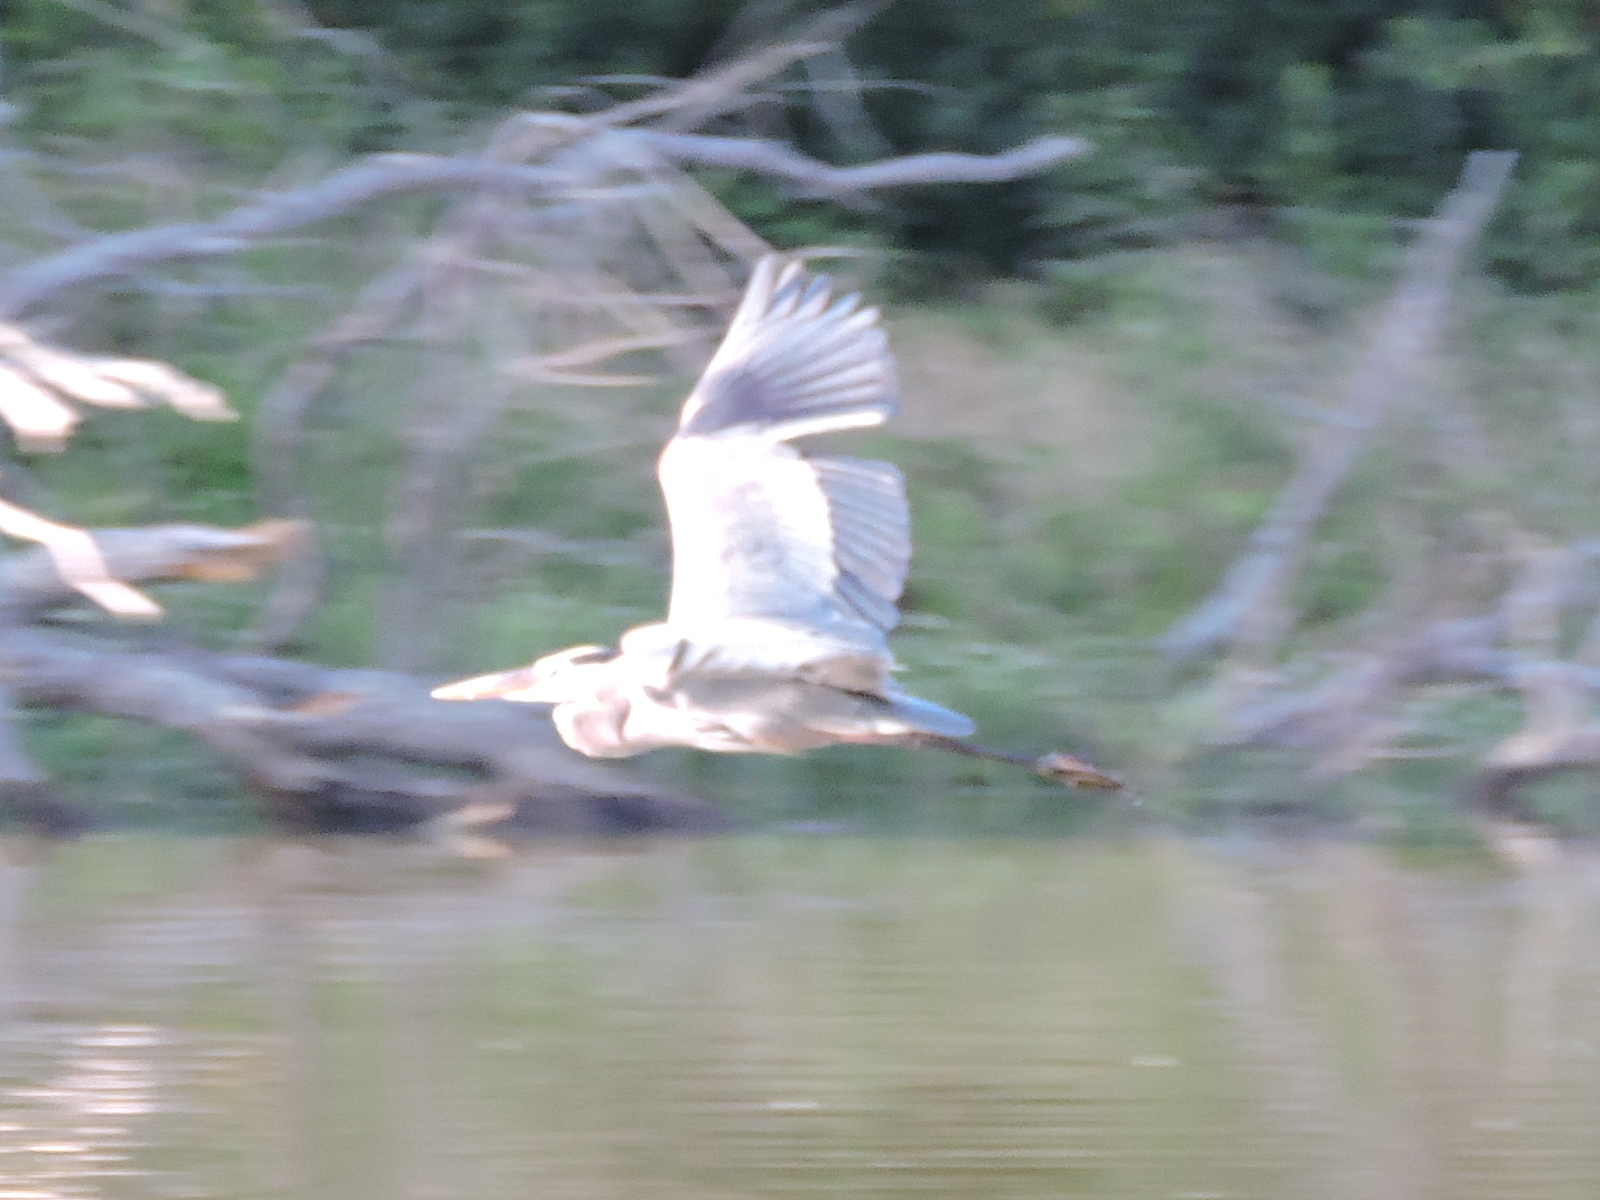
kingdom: Animalia
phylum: Chordata
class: Aves
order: Pelecaniformes
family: Ardeidae
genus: Ardea
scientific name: Ardea herodias
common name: Great blue heron
